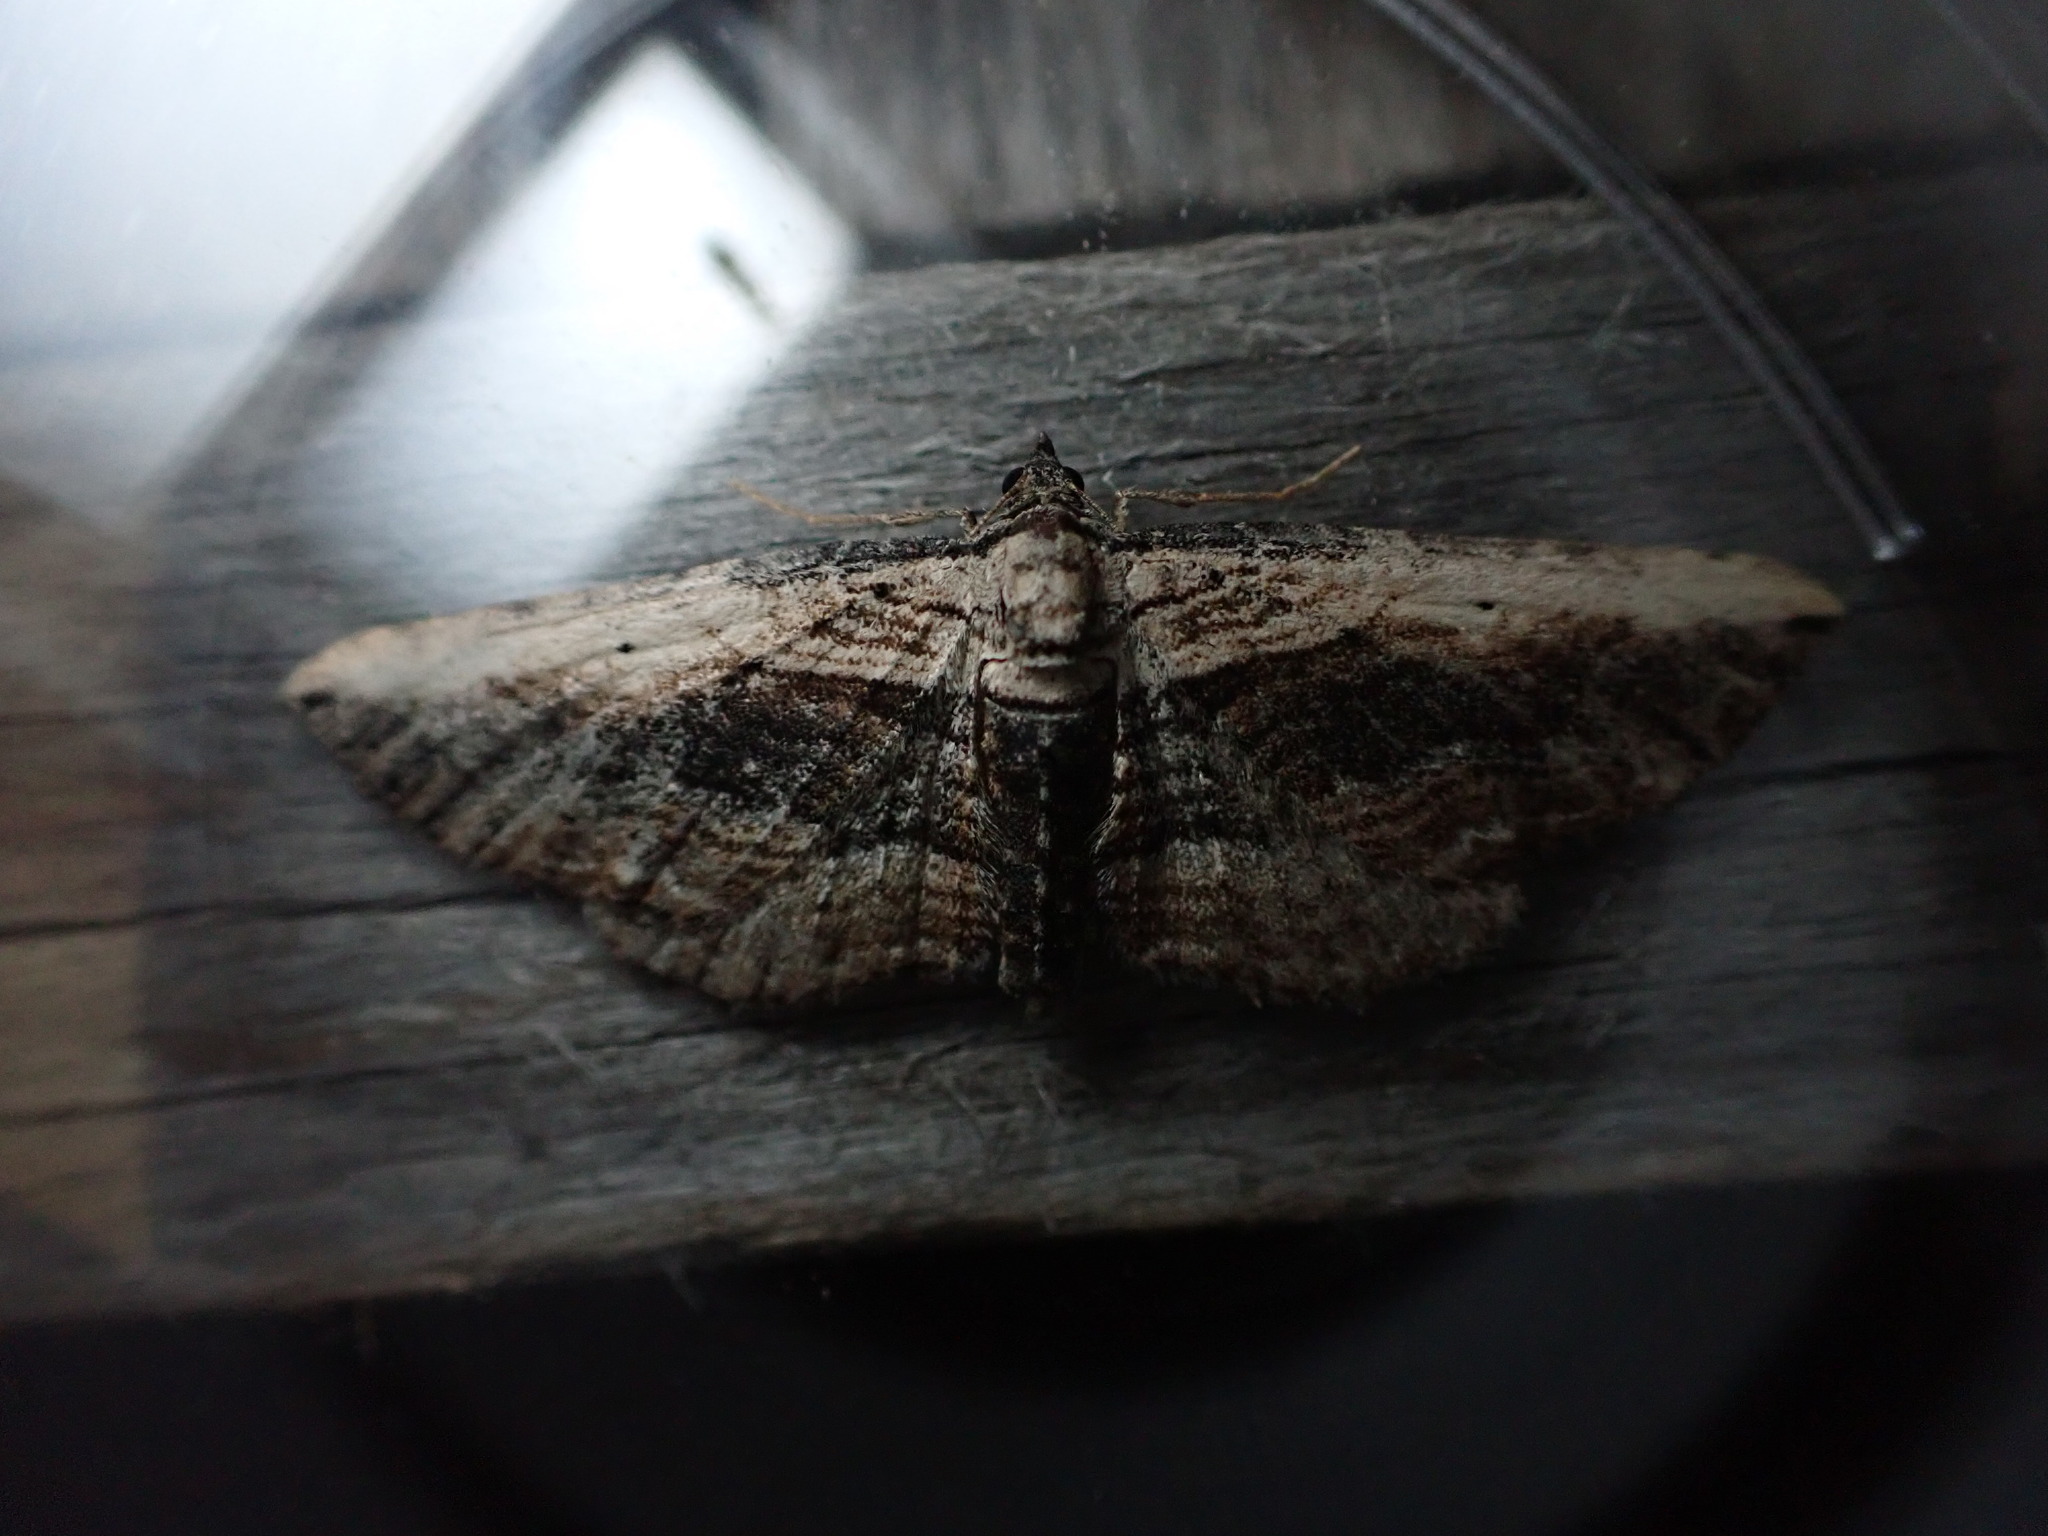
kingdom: Animalia
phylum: Arthropoda
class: Insecta
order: Lepidoptera
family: Geometridae
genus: Horisme
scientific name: Horisme vitalbata
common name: Small waved umber
